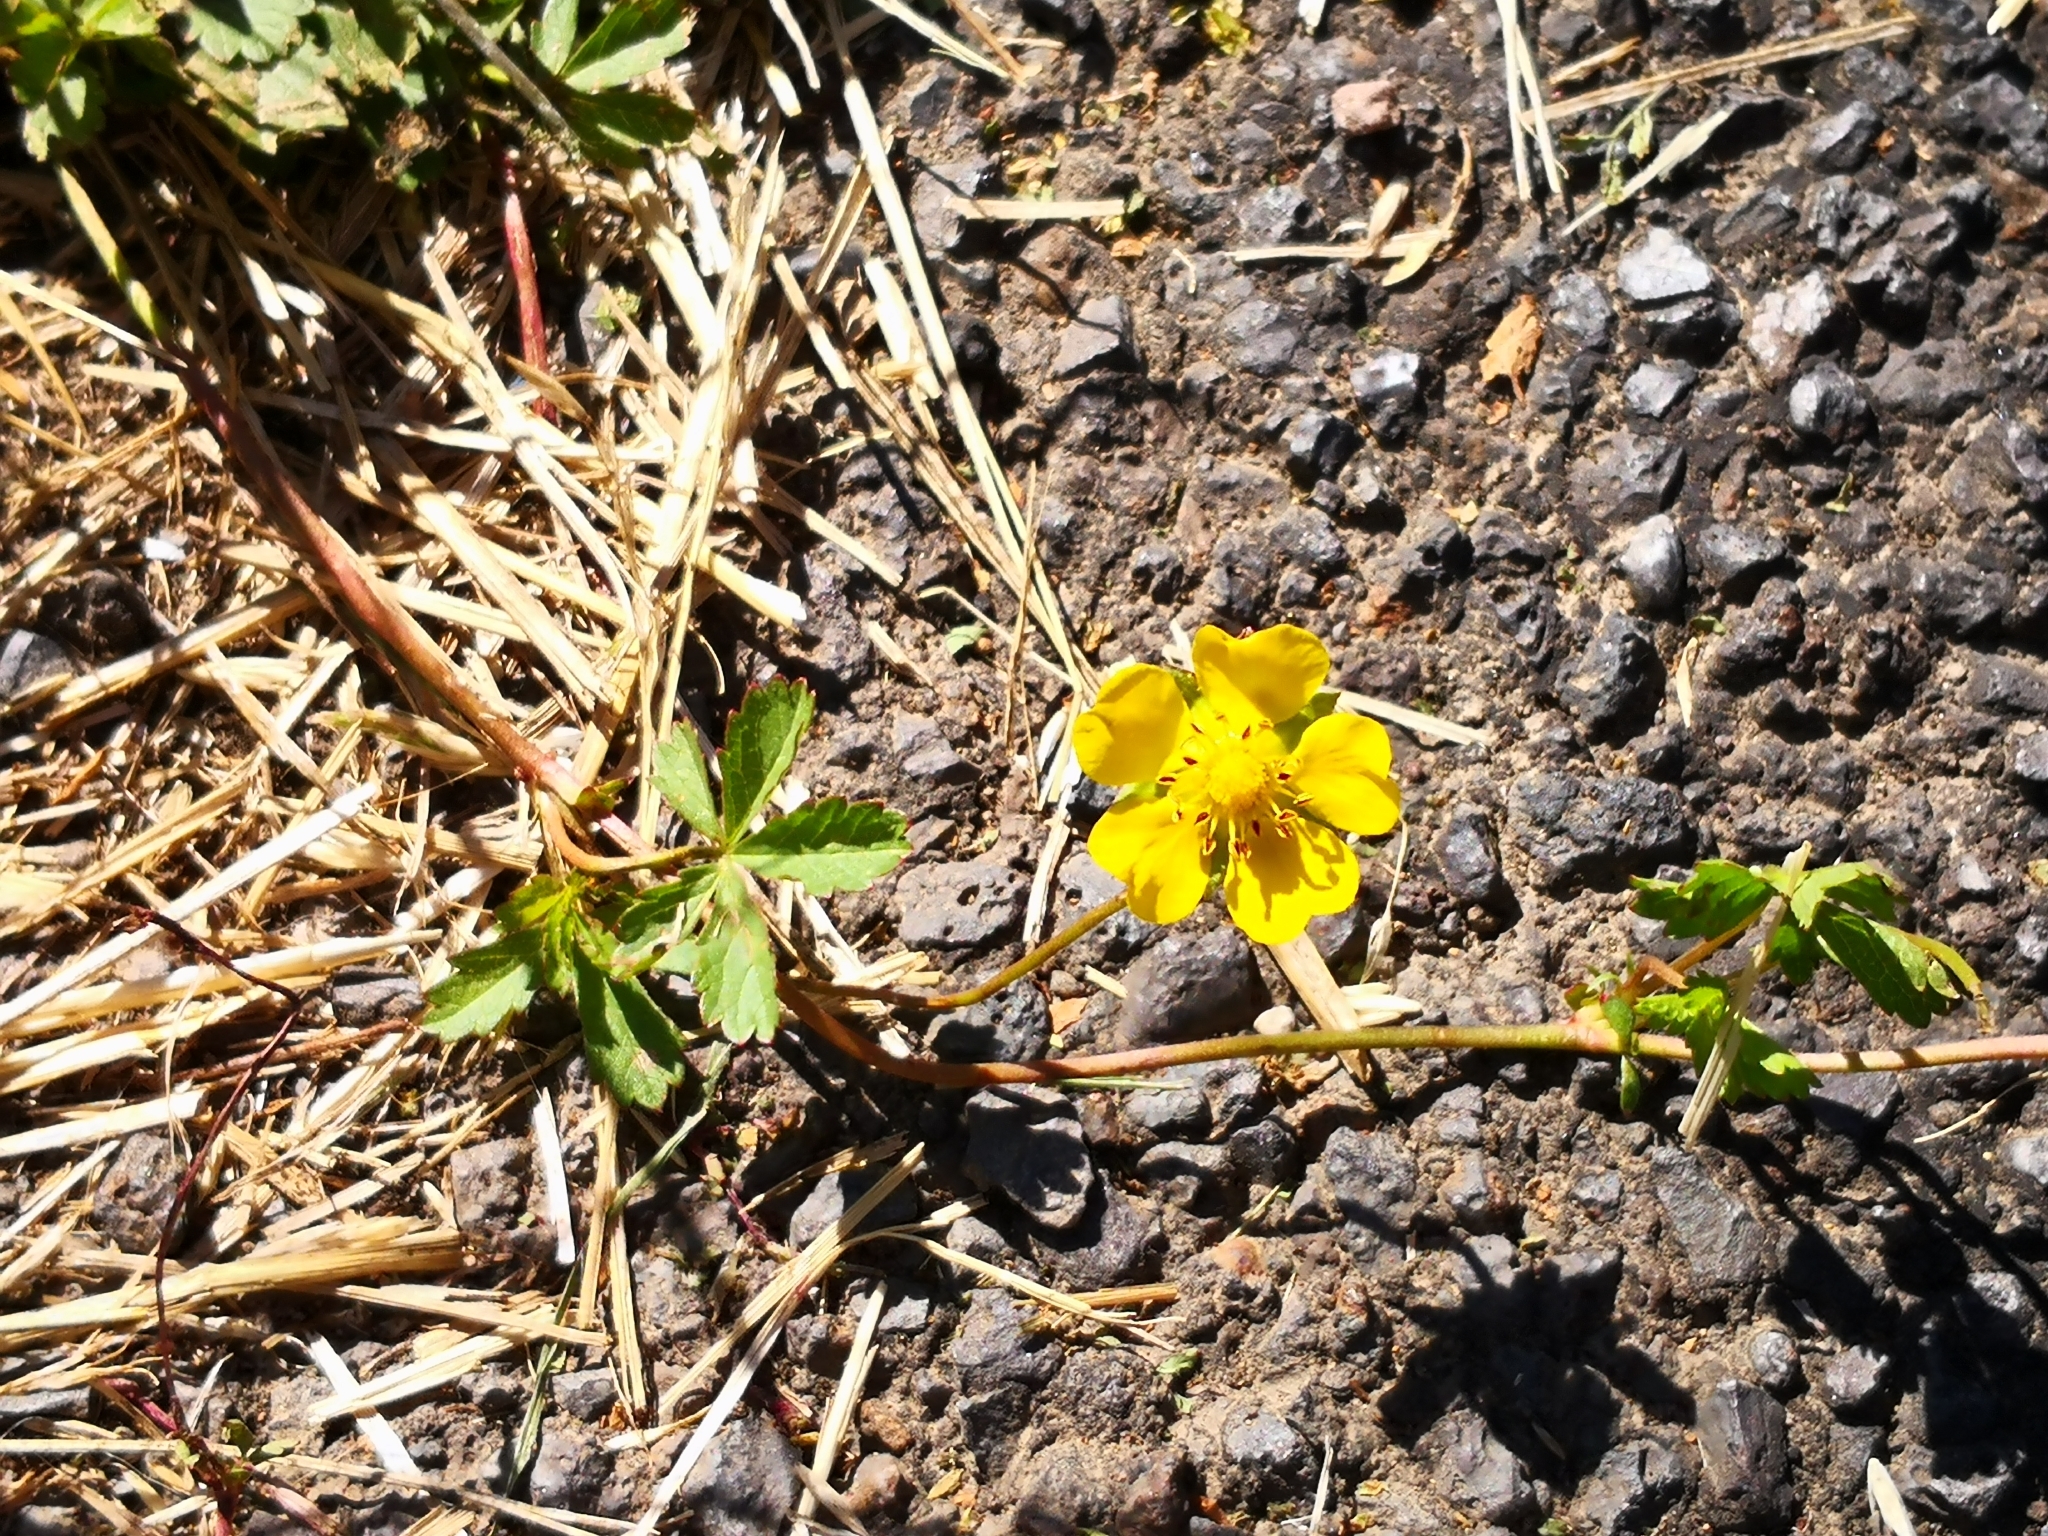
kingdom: Plantae
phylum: Tracheophyta
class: Magnoliopsida
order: Rosales
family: Rosaceae
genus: Potentilla
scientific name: Potentilla reptans
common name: Creeping cinquefoil
